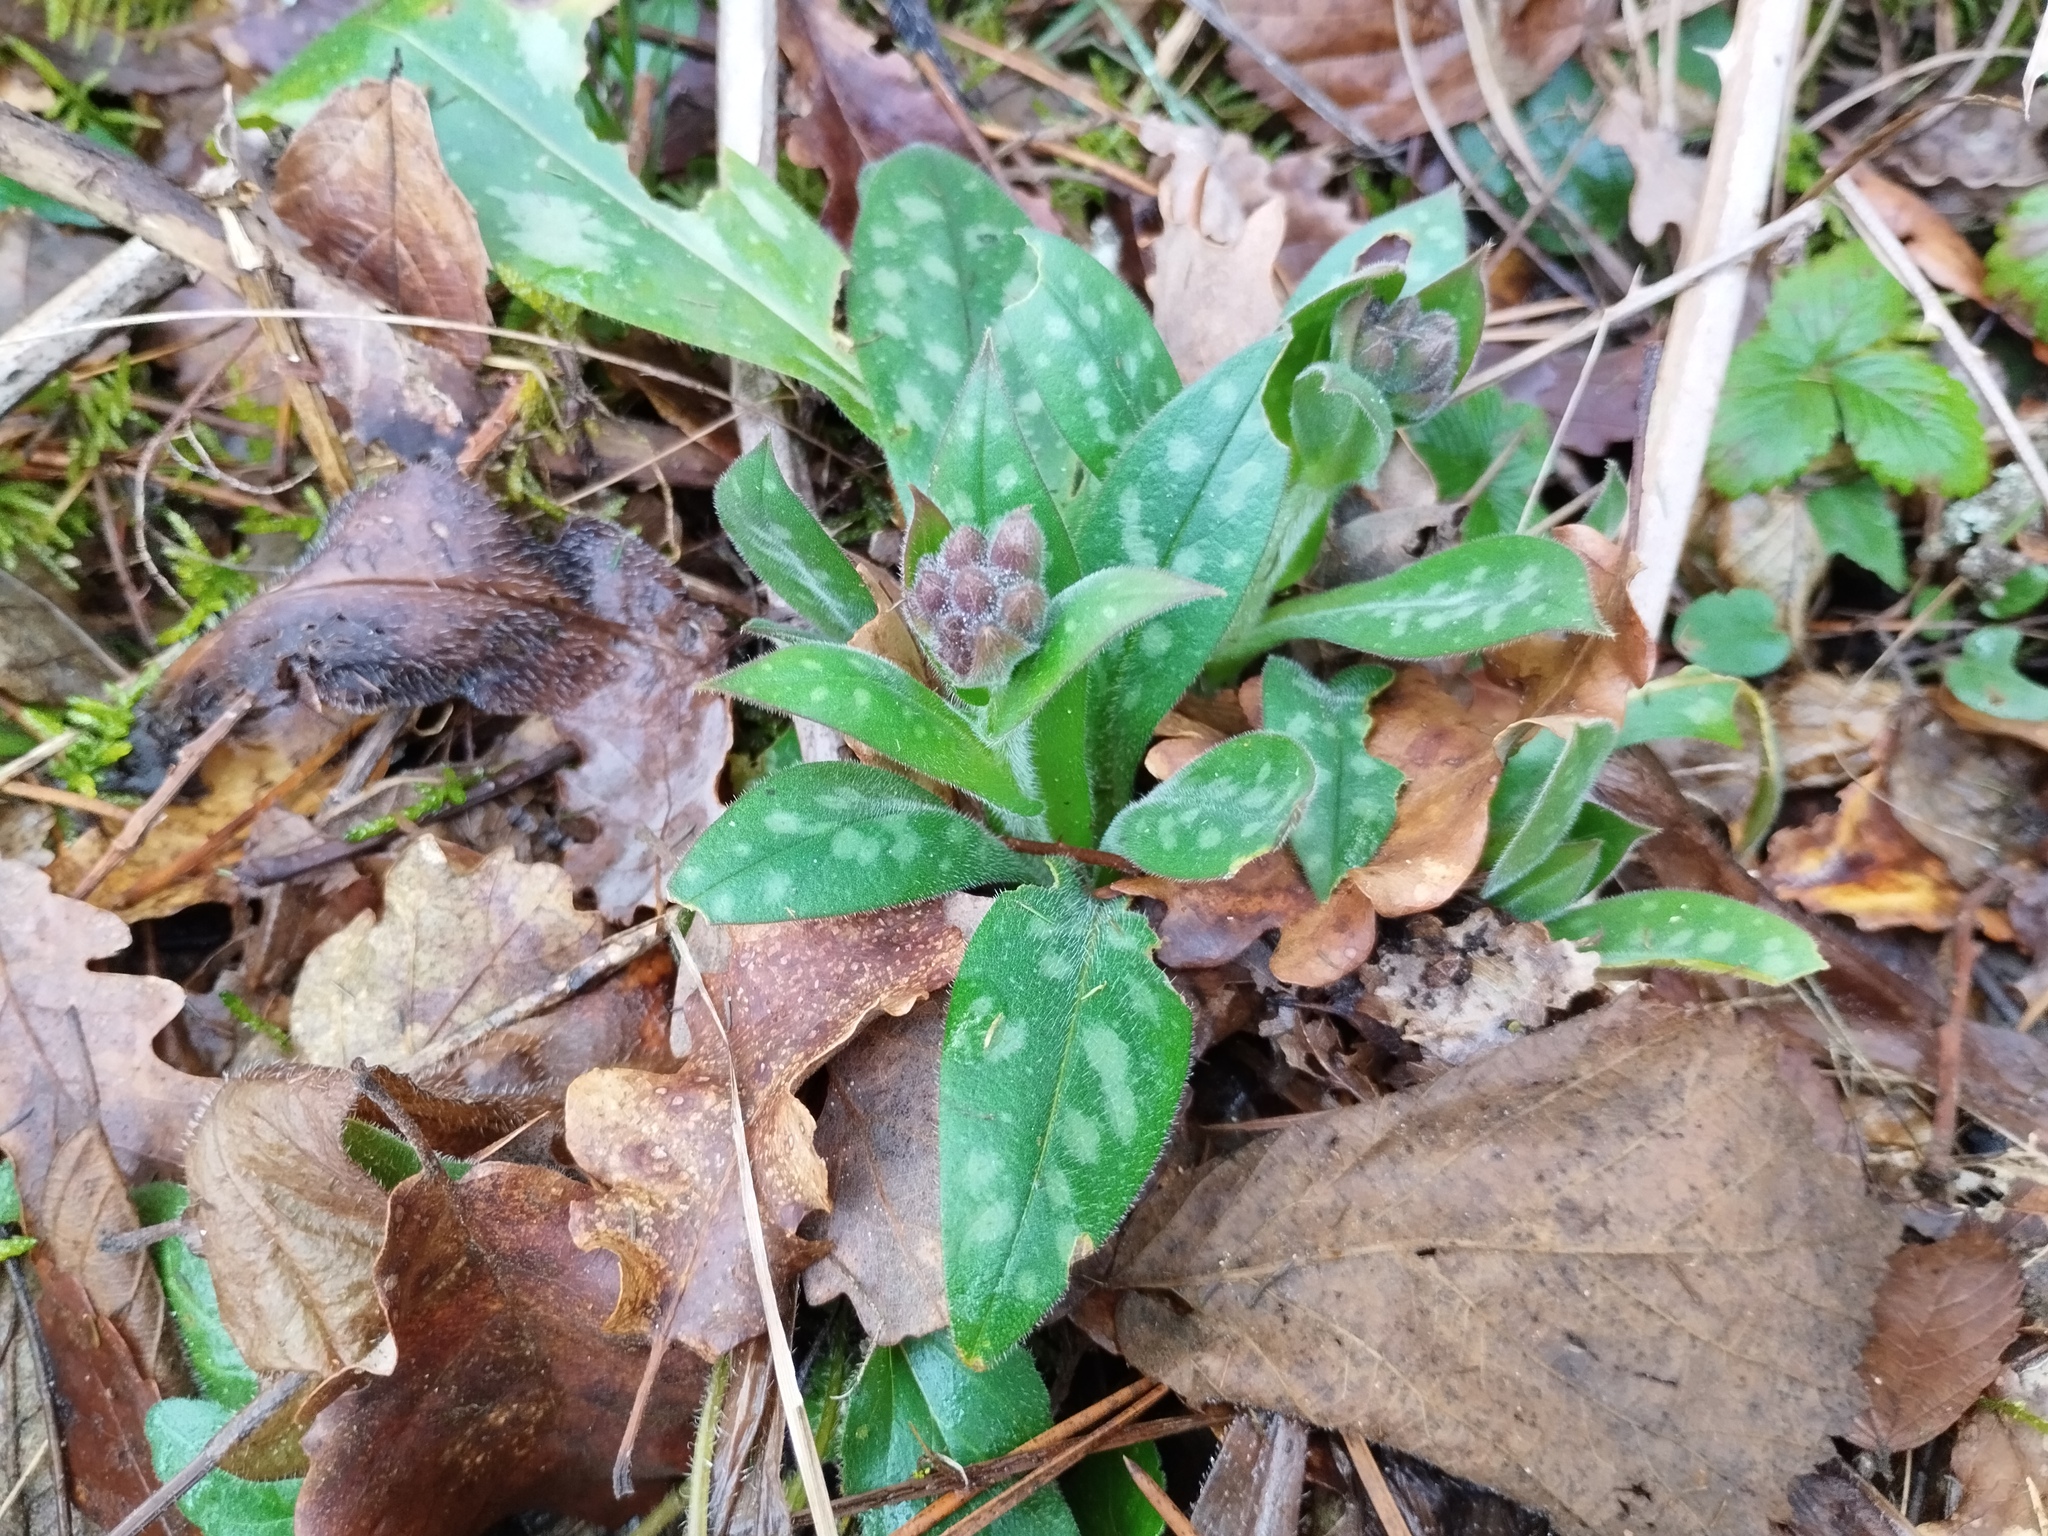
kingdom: Plantae
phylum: Tracheophyta
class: Magnoliopsida
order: Boraginales
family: Boraginaceae
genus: Pulmonaria
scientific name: Pulmonaria longifolia
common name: Narrow-leaved lungwort
